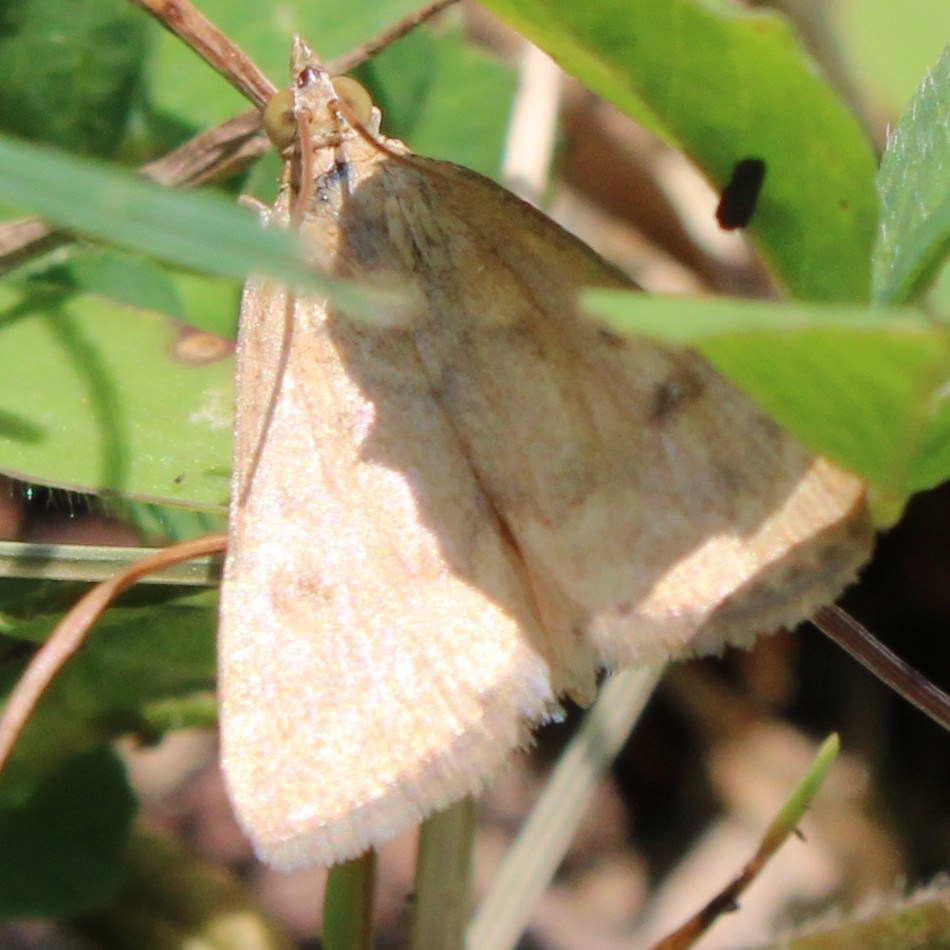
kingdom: Animalia
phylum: Arthropoda
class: Insecta
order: Lepidoptera
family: Crambidae
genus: Achyra
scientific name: Achyra rantalis
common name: Garden webworm
